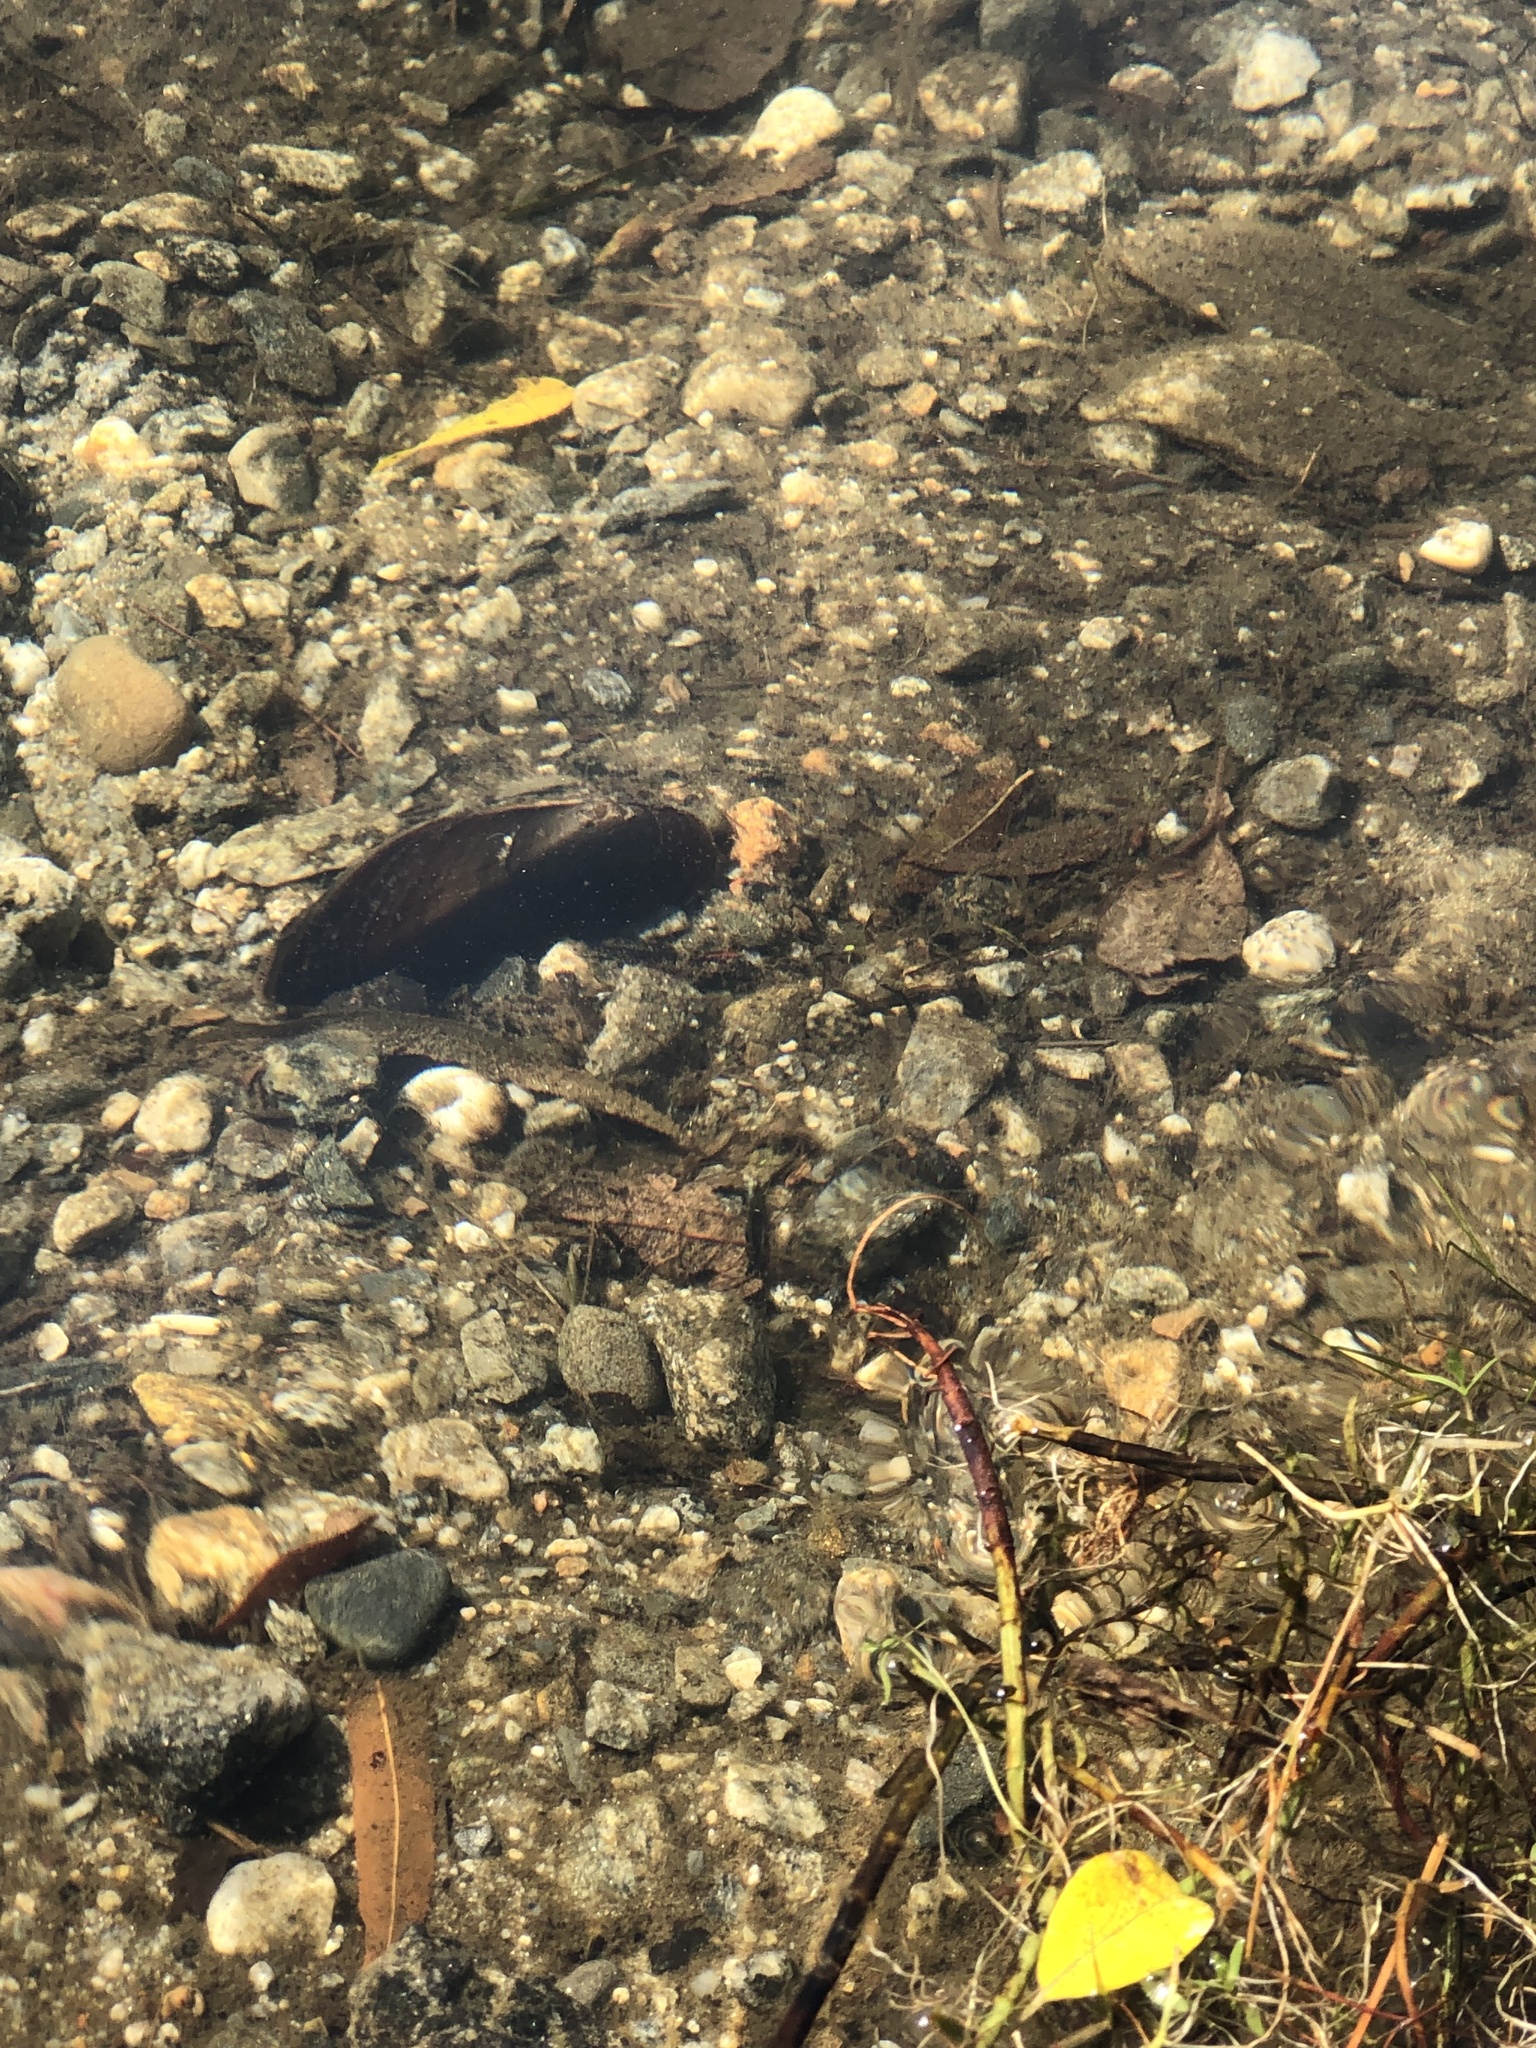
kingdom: Animalia
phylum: Mollusca
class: Bivalvia
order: Unionida
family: Unionidae
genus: Elliptio
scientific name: Elliptio complanata
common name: Eastern elliptio
